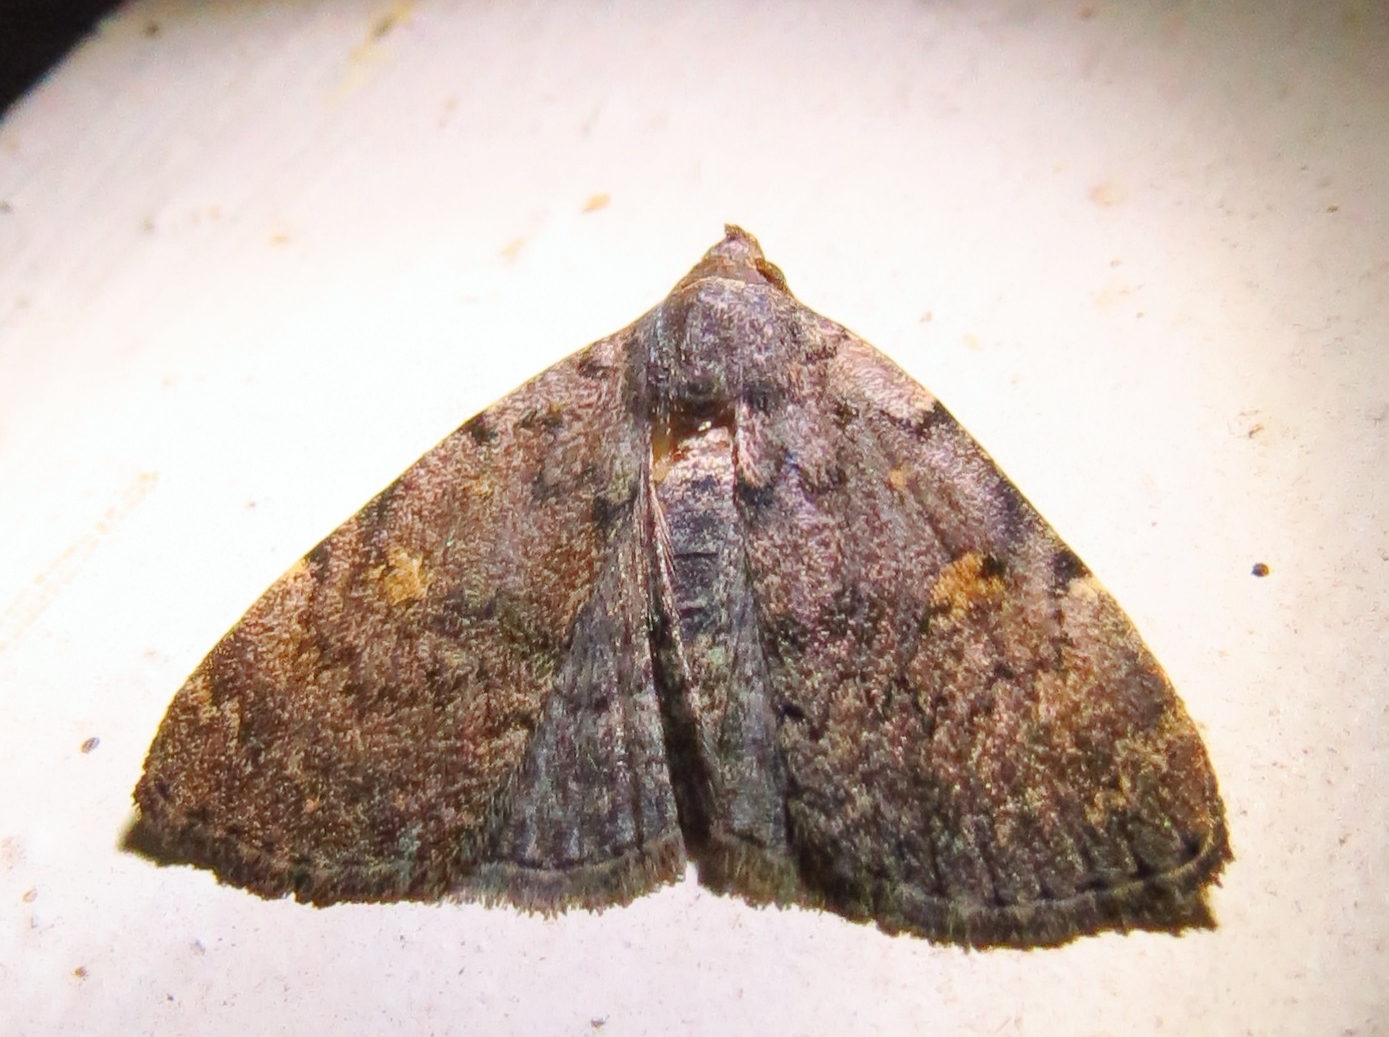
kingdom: Animalia
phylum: Arthropoda
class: Insecta
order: Lepidoptera
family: Erebidae
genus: Idia
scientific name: Idia aemula
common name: Common idia moth
